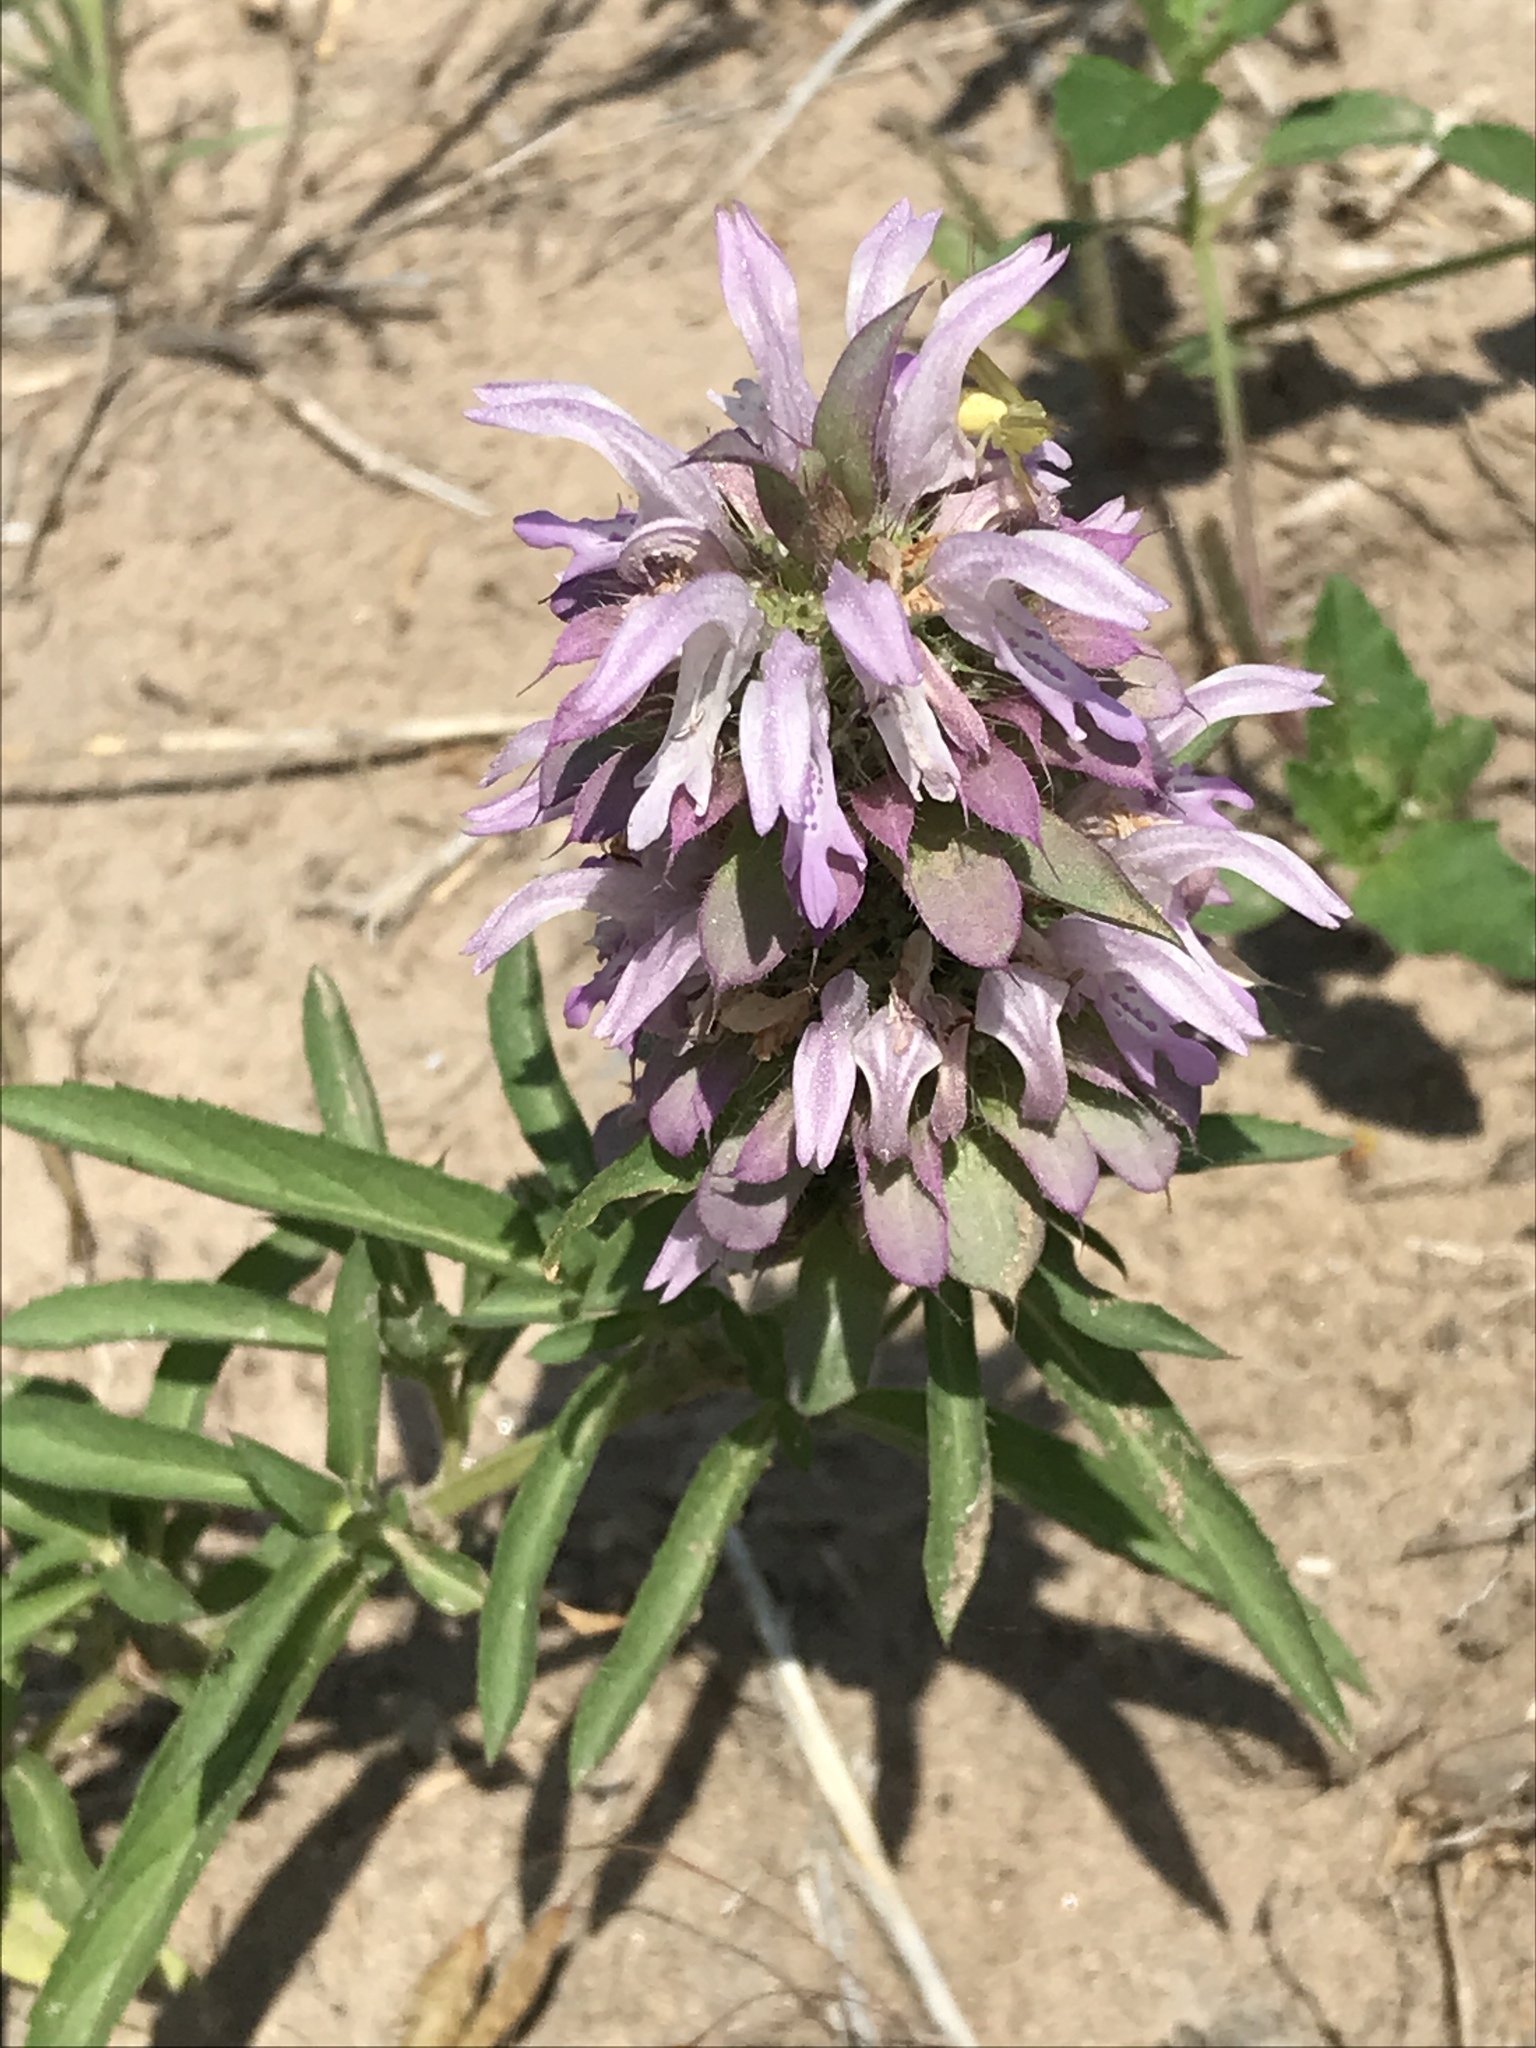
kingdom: Plantae
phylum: Tracheophyta
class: Magnoliopsida
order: Lamiales
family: Lamiaceae
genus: Monarda
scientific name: Monarda citriodora
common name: Lemon beebalm
